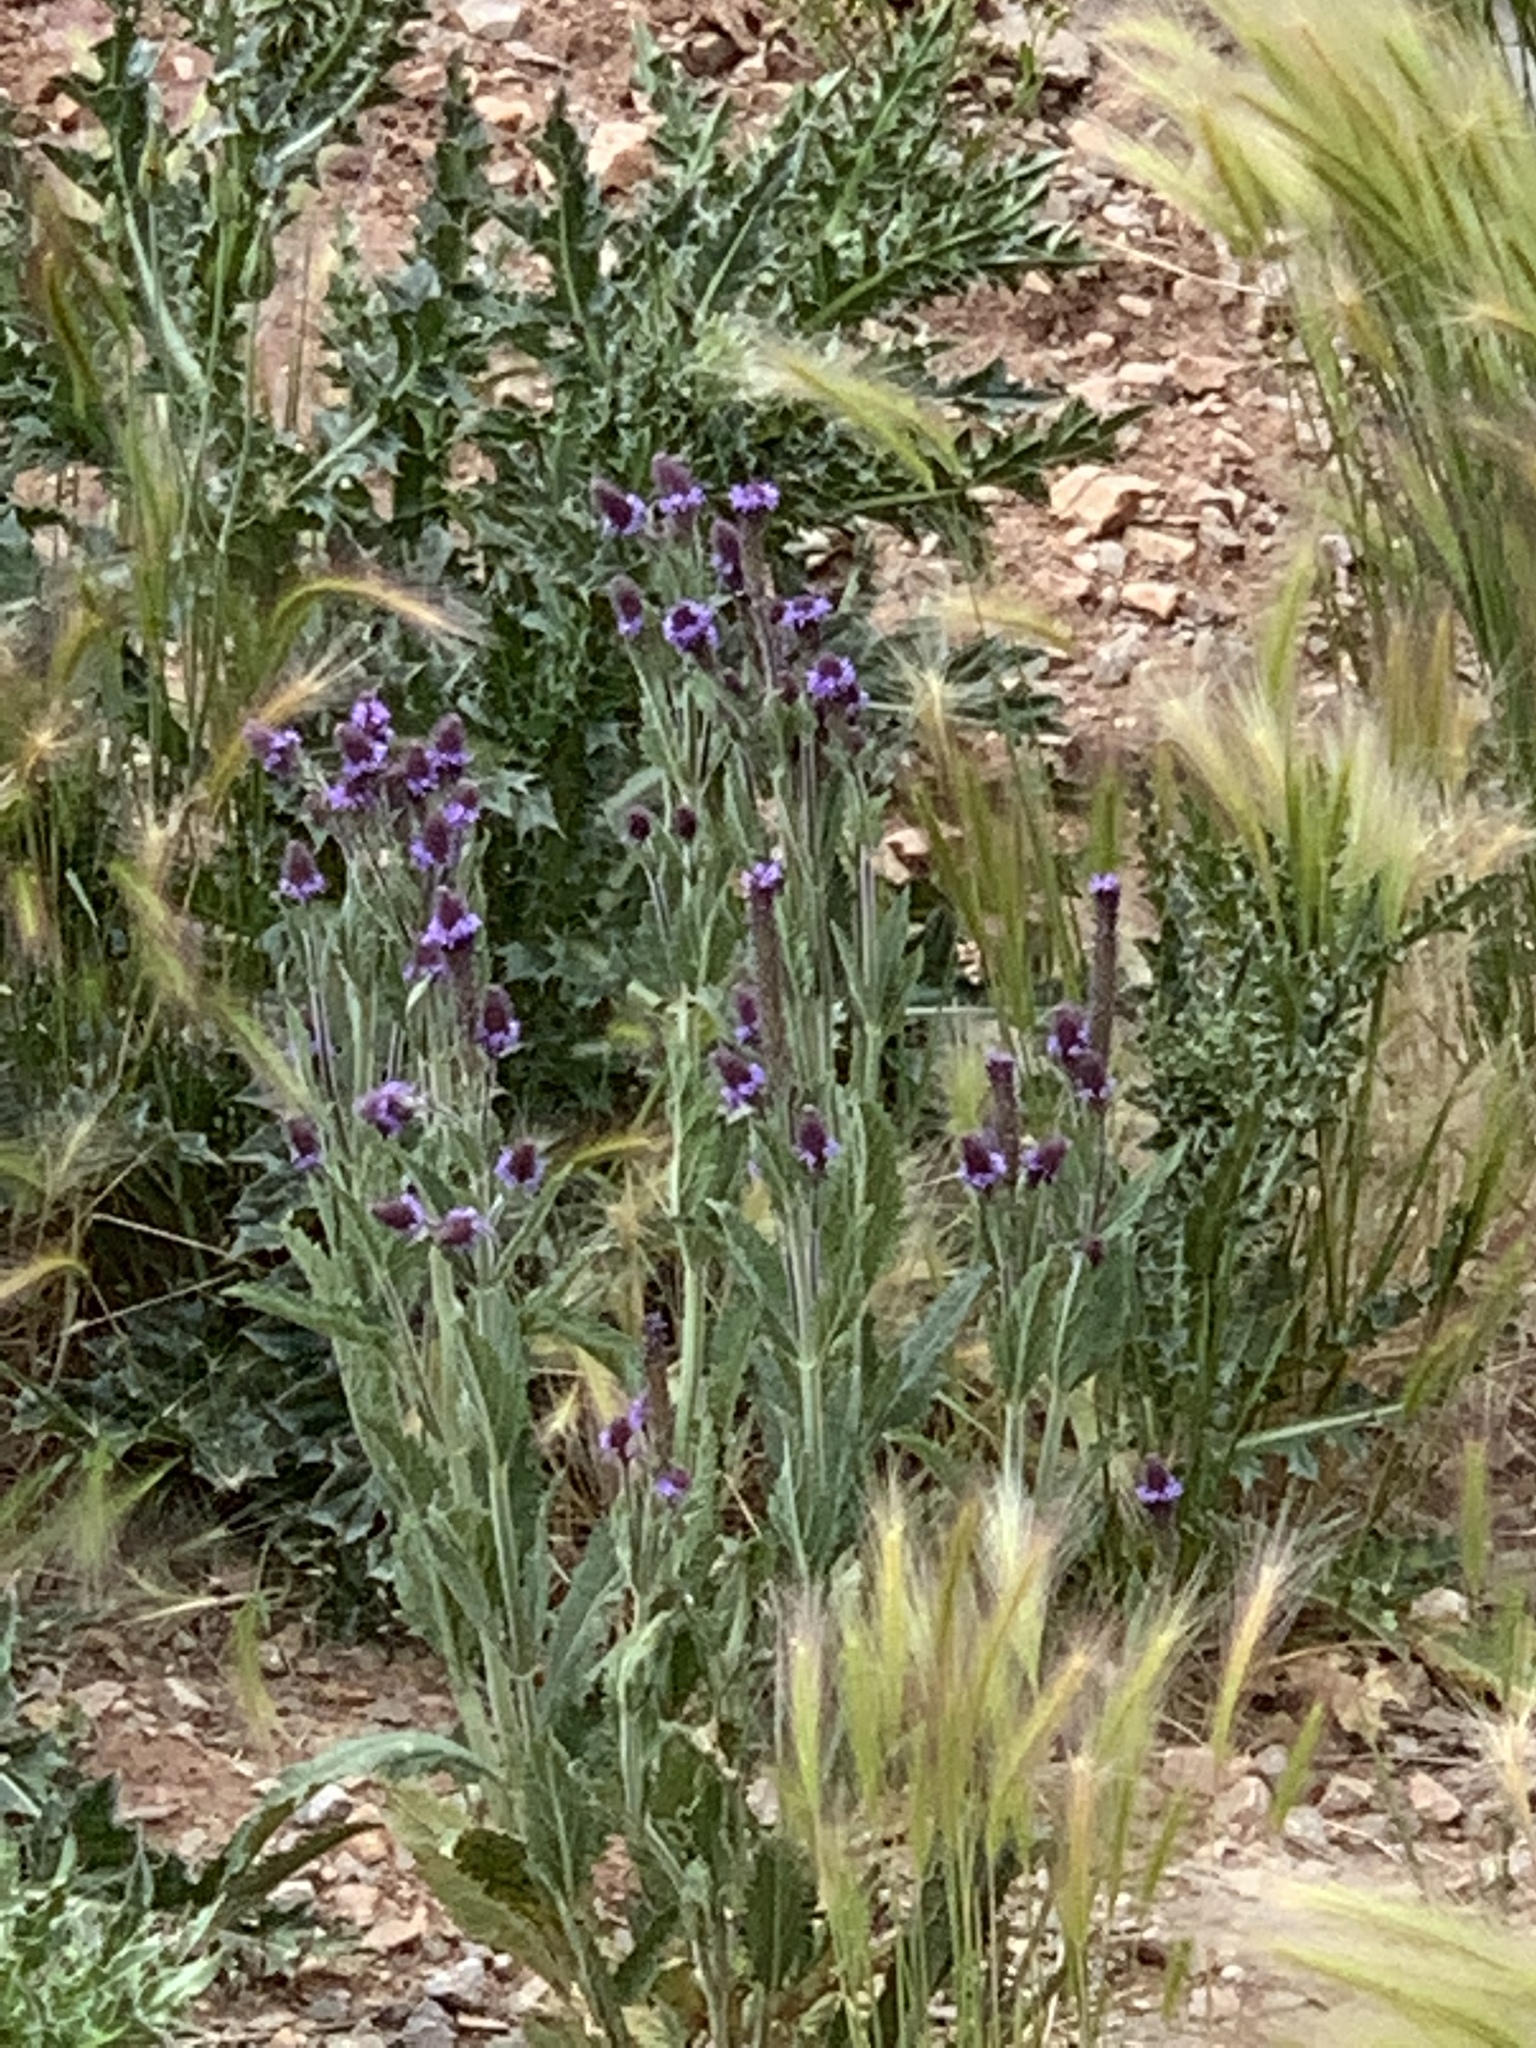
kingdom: Plantae
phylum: Tracheophyta
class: Magnoliopsida
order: Lamiales
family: Verbenaceae
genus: Verbena
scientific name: Verbena macdougalii
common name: New mexico vervain
